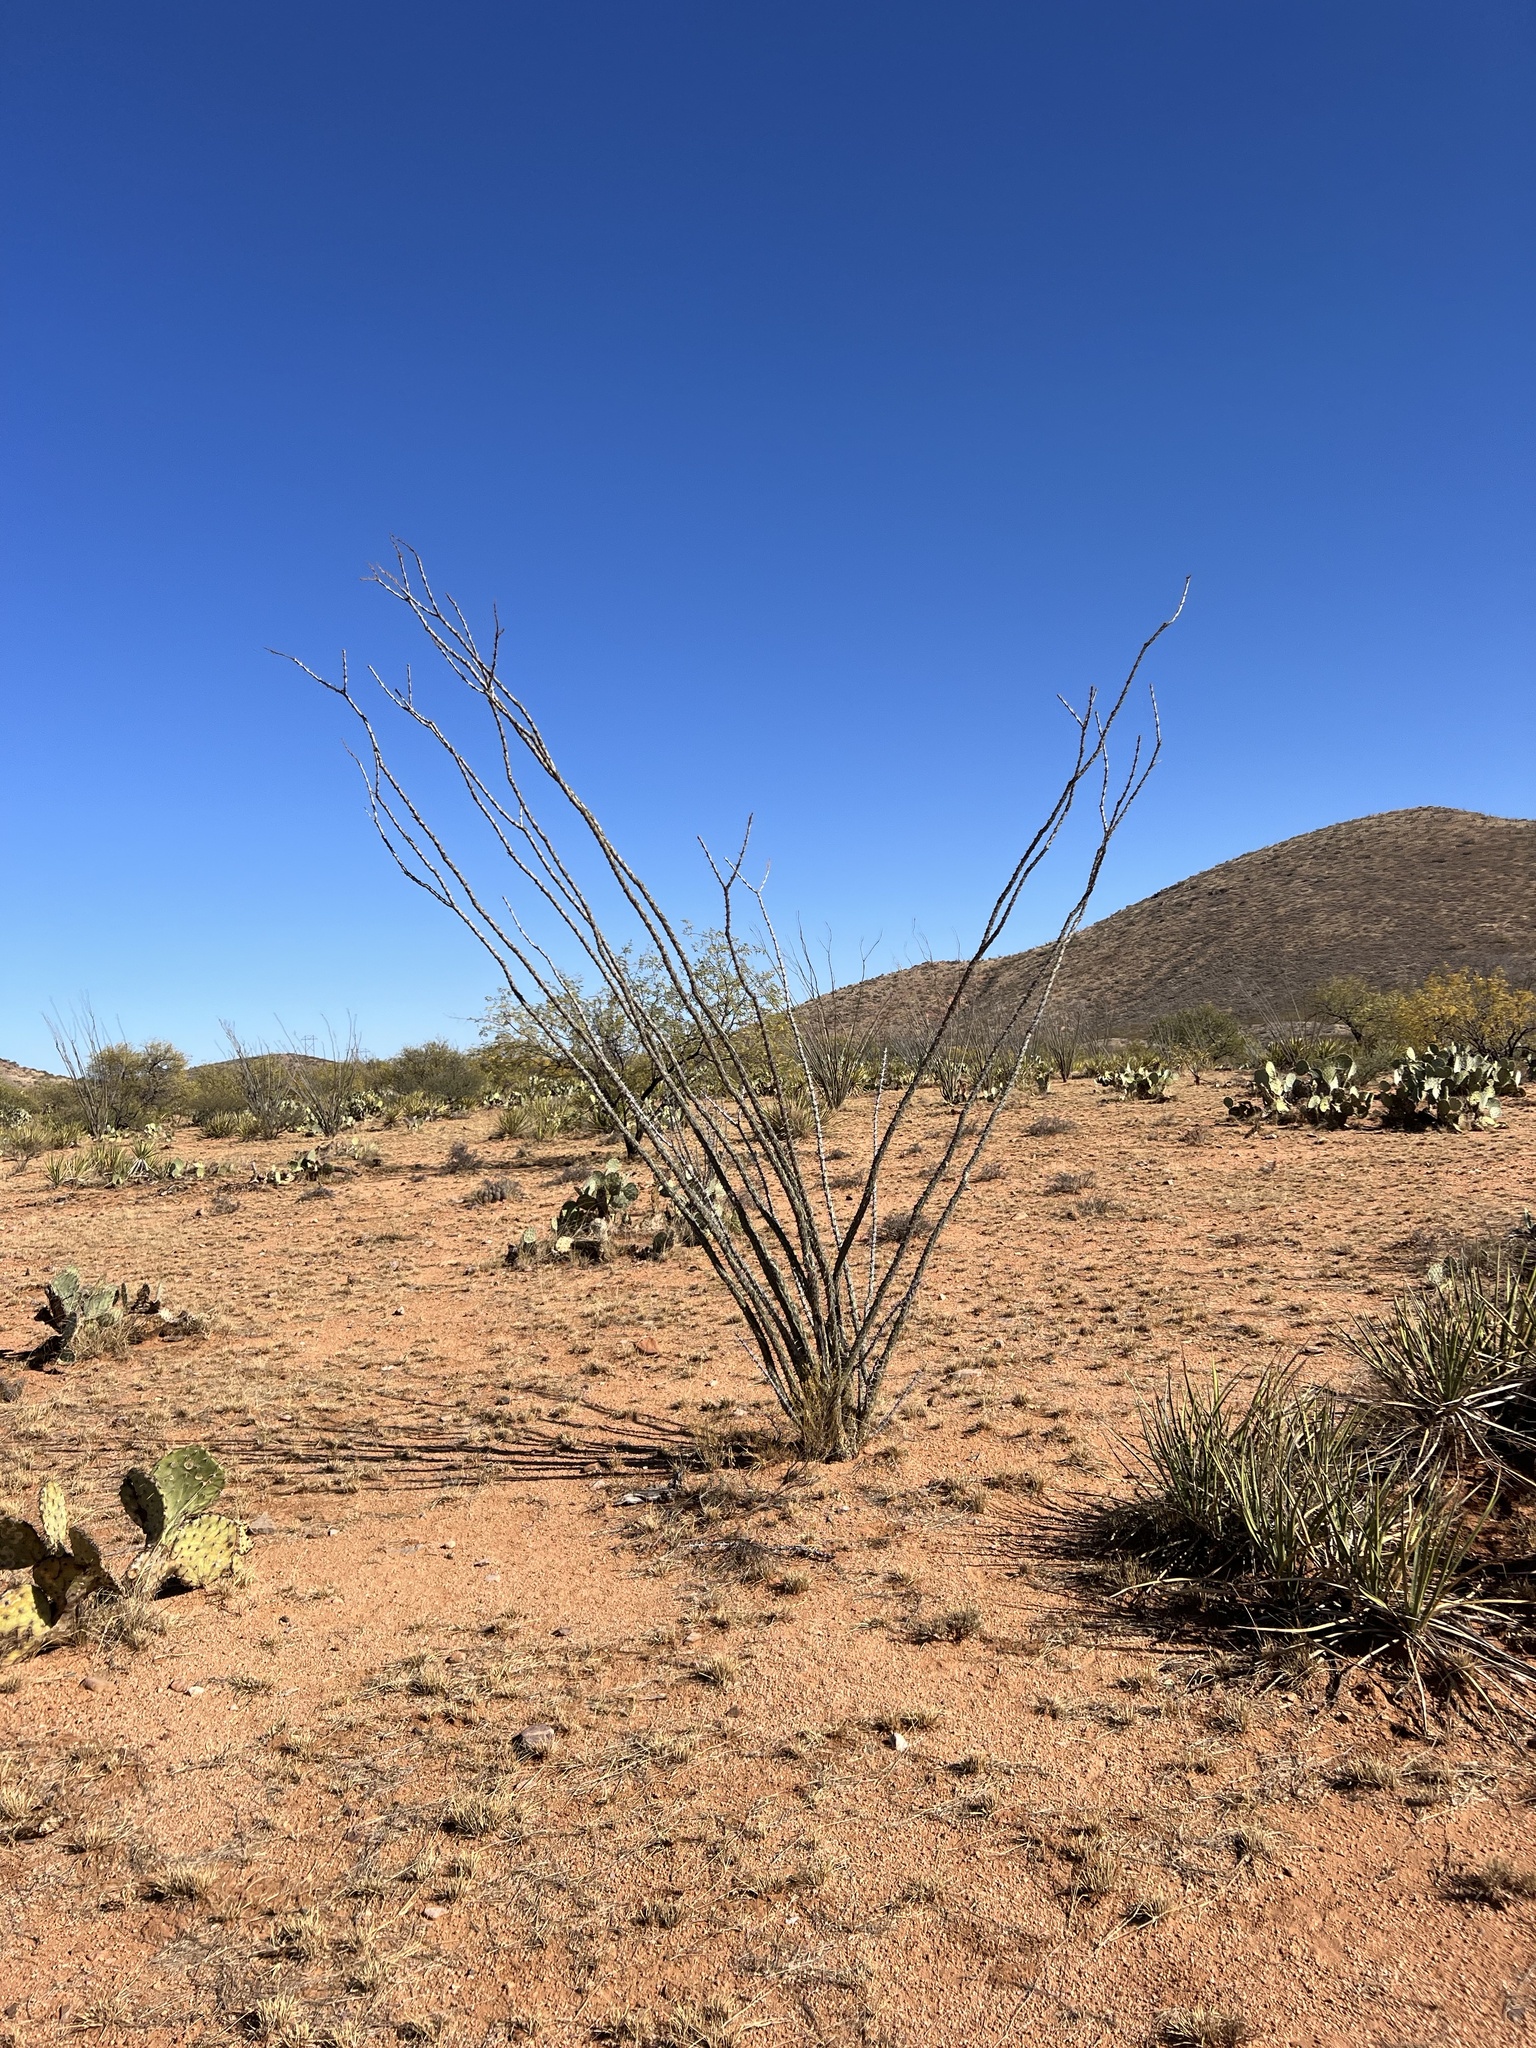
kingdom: Plantae
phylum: Tracheophyta
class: Magnoliopsida
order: Ericales
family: Fouquieriaceae
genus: Fouquieria
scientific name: Fouquieria splendens
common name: Vine-cactus
